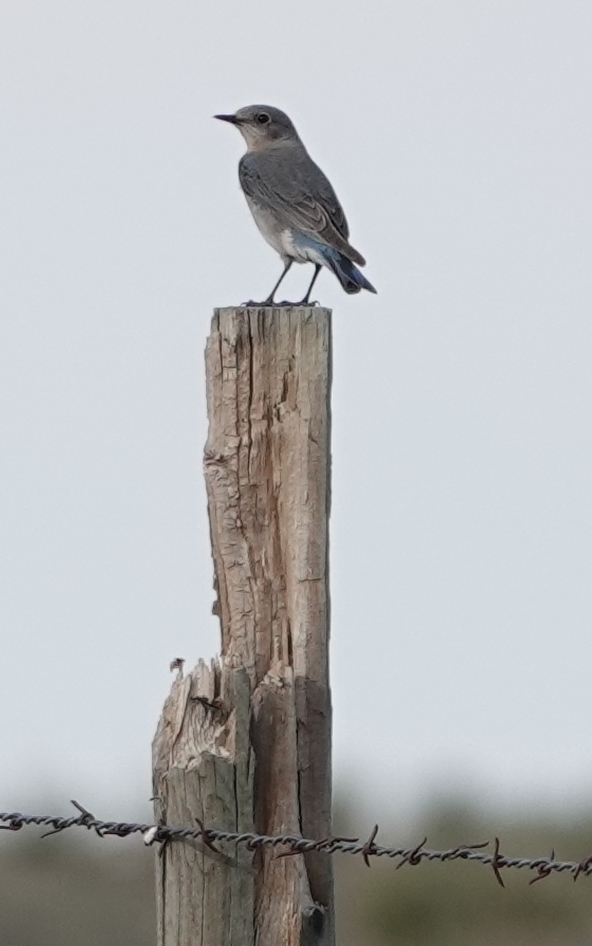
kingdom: Animalia
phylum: Chordata
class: Aves
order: Passeriformes
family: Turdidae
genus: Sialia
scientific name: Sialia currucoides
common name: Mountain bluebird
